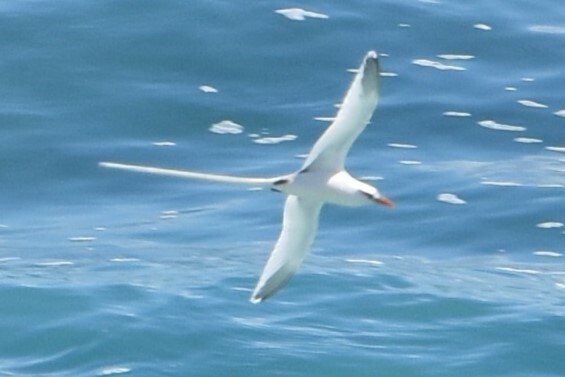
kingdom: Animalia
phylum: Chordata
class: Aves
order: Phaethontiformes
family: Phaethontidae
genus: Phaethon
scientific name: Phaethon lepturus
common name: White-tailed tropicbird
